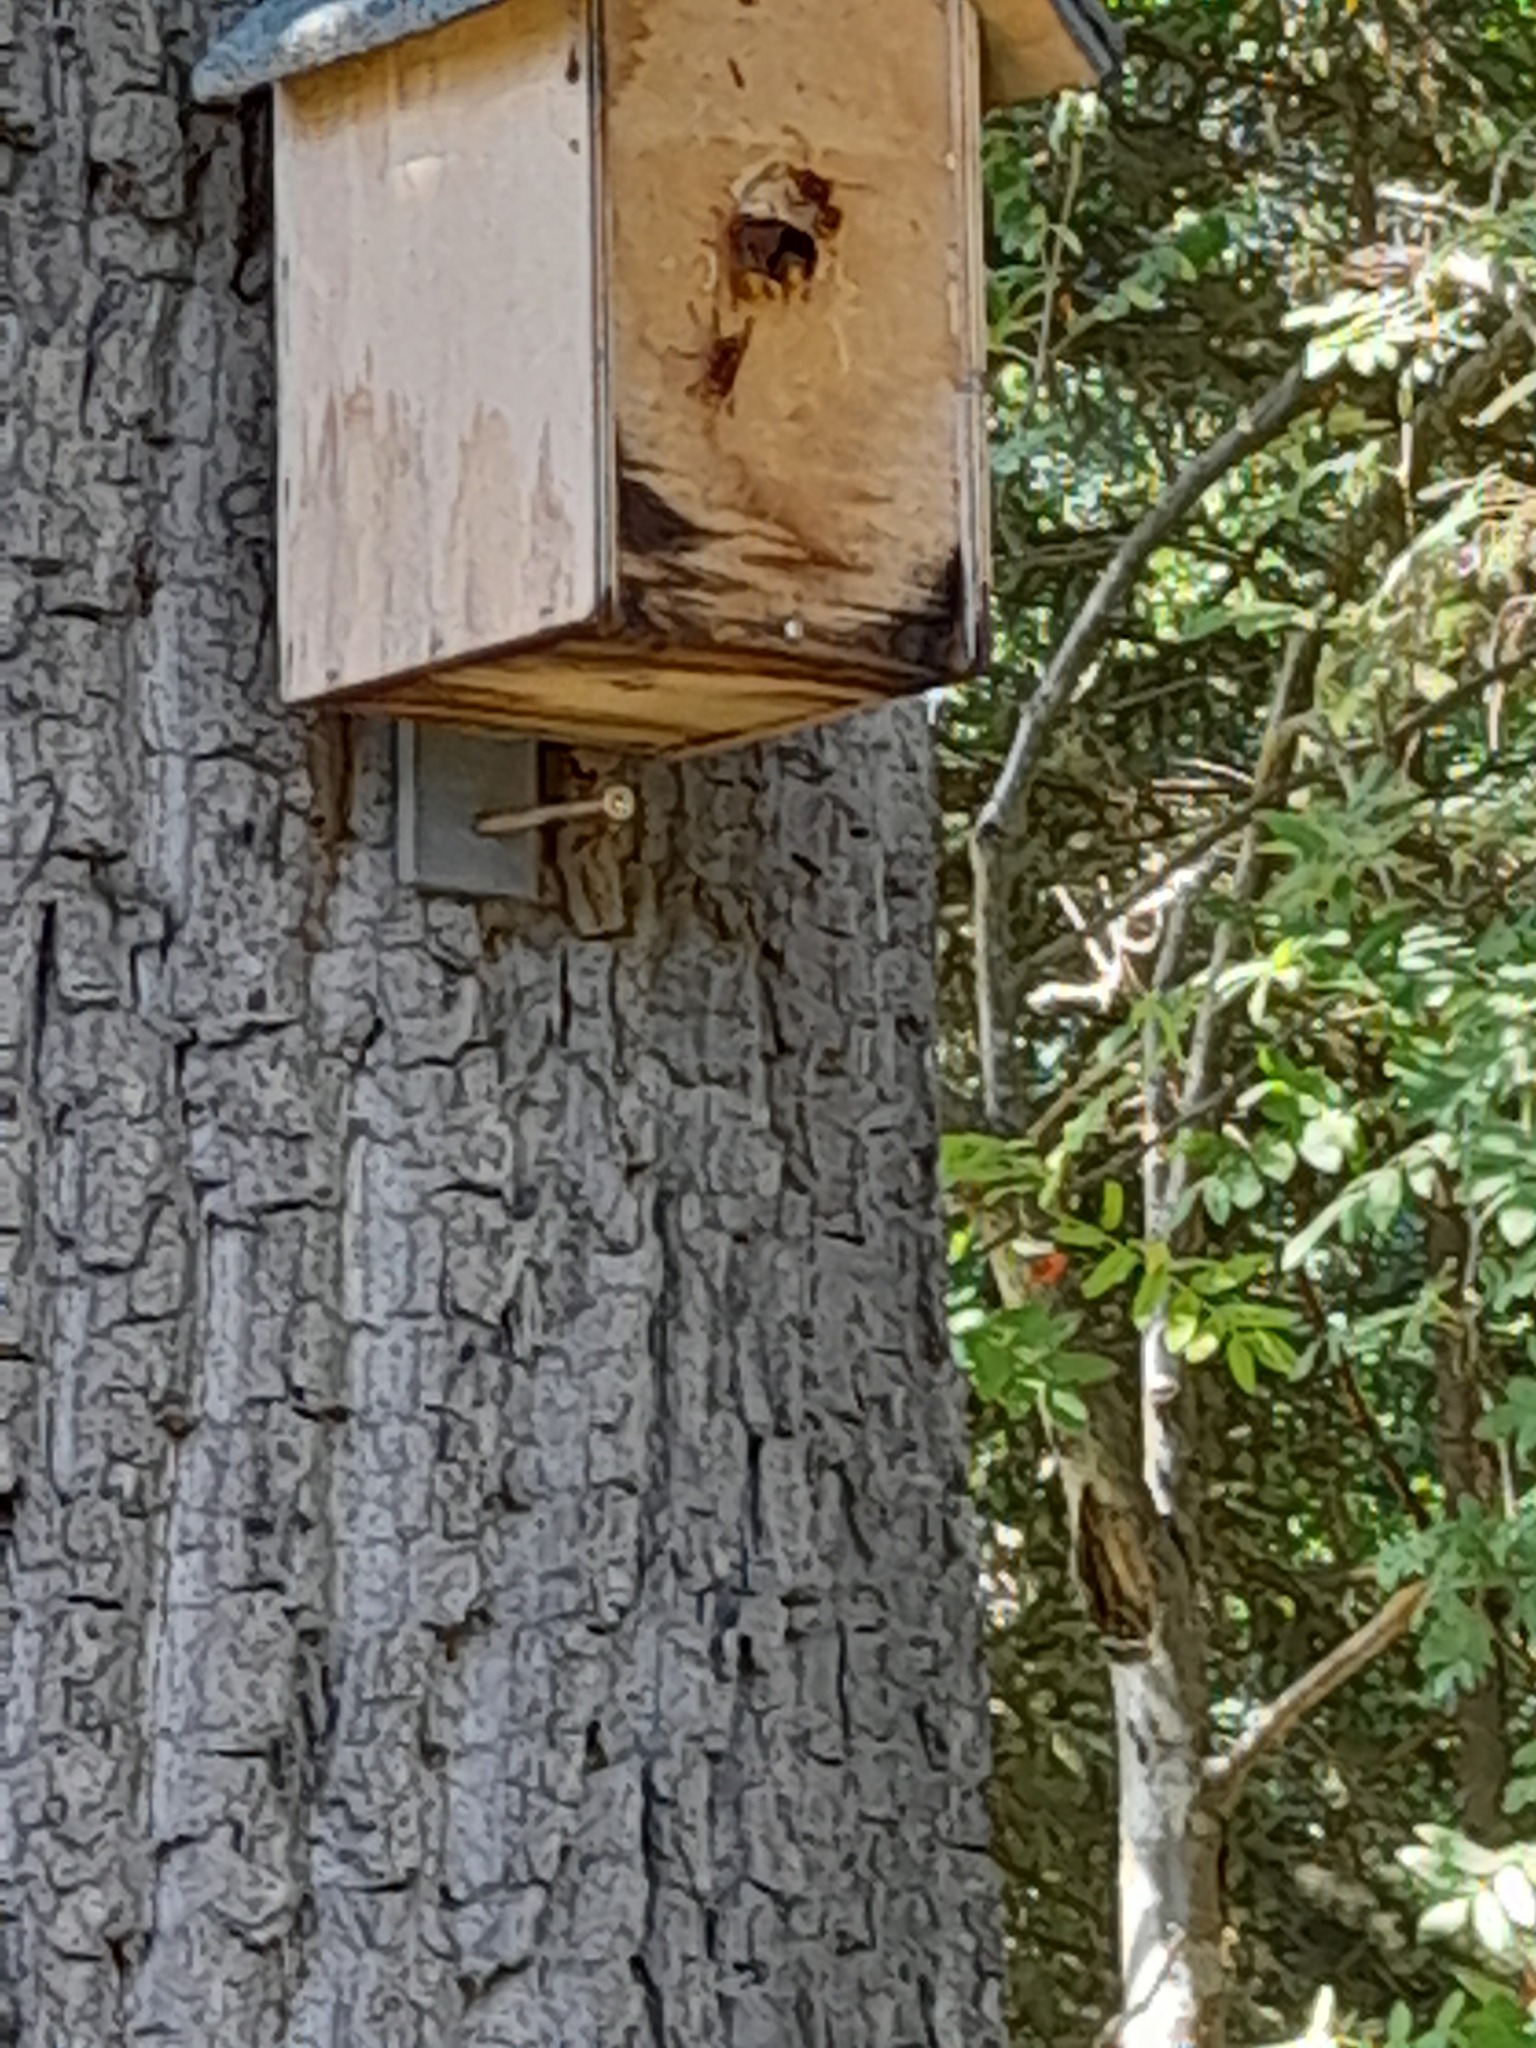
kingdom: Animalia
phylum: Arthropoda
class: Insecta
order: Hymenoptera
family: Vespidae
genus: Vespa
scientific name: Vespa crabro
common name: Hornet
